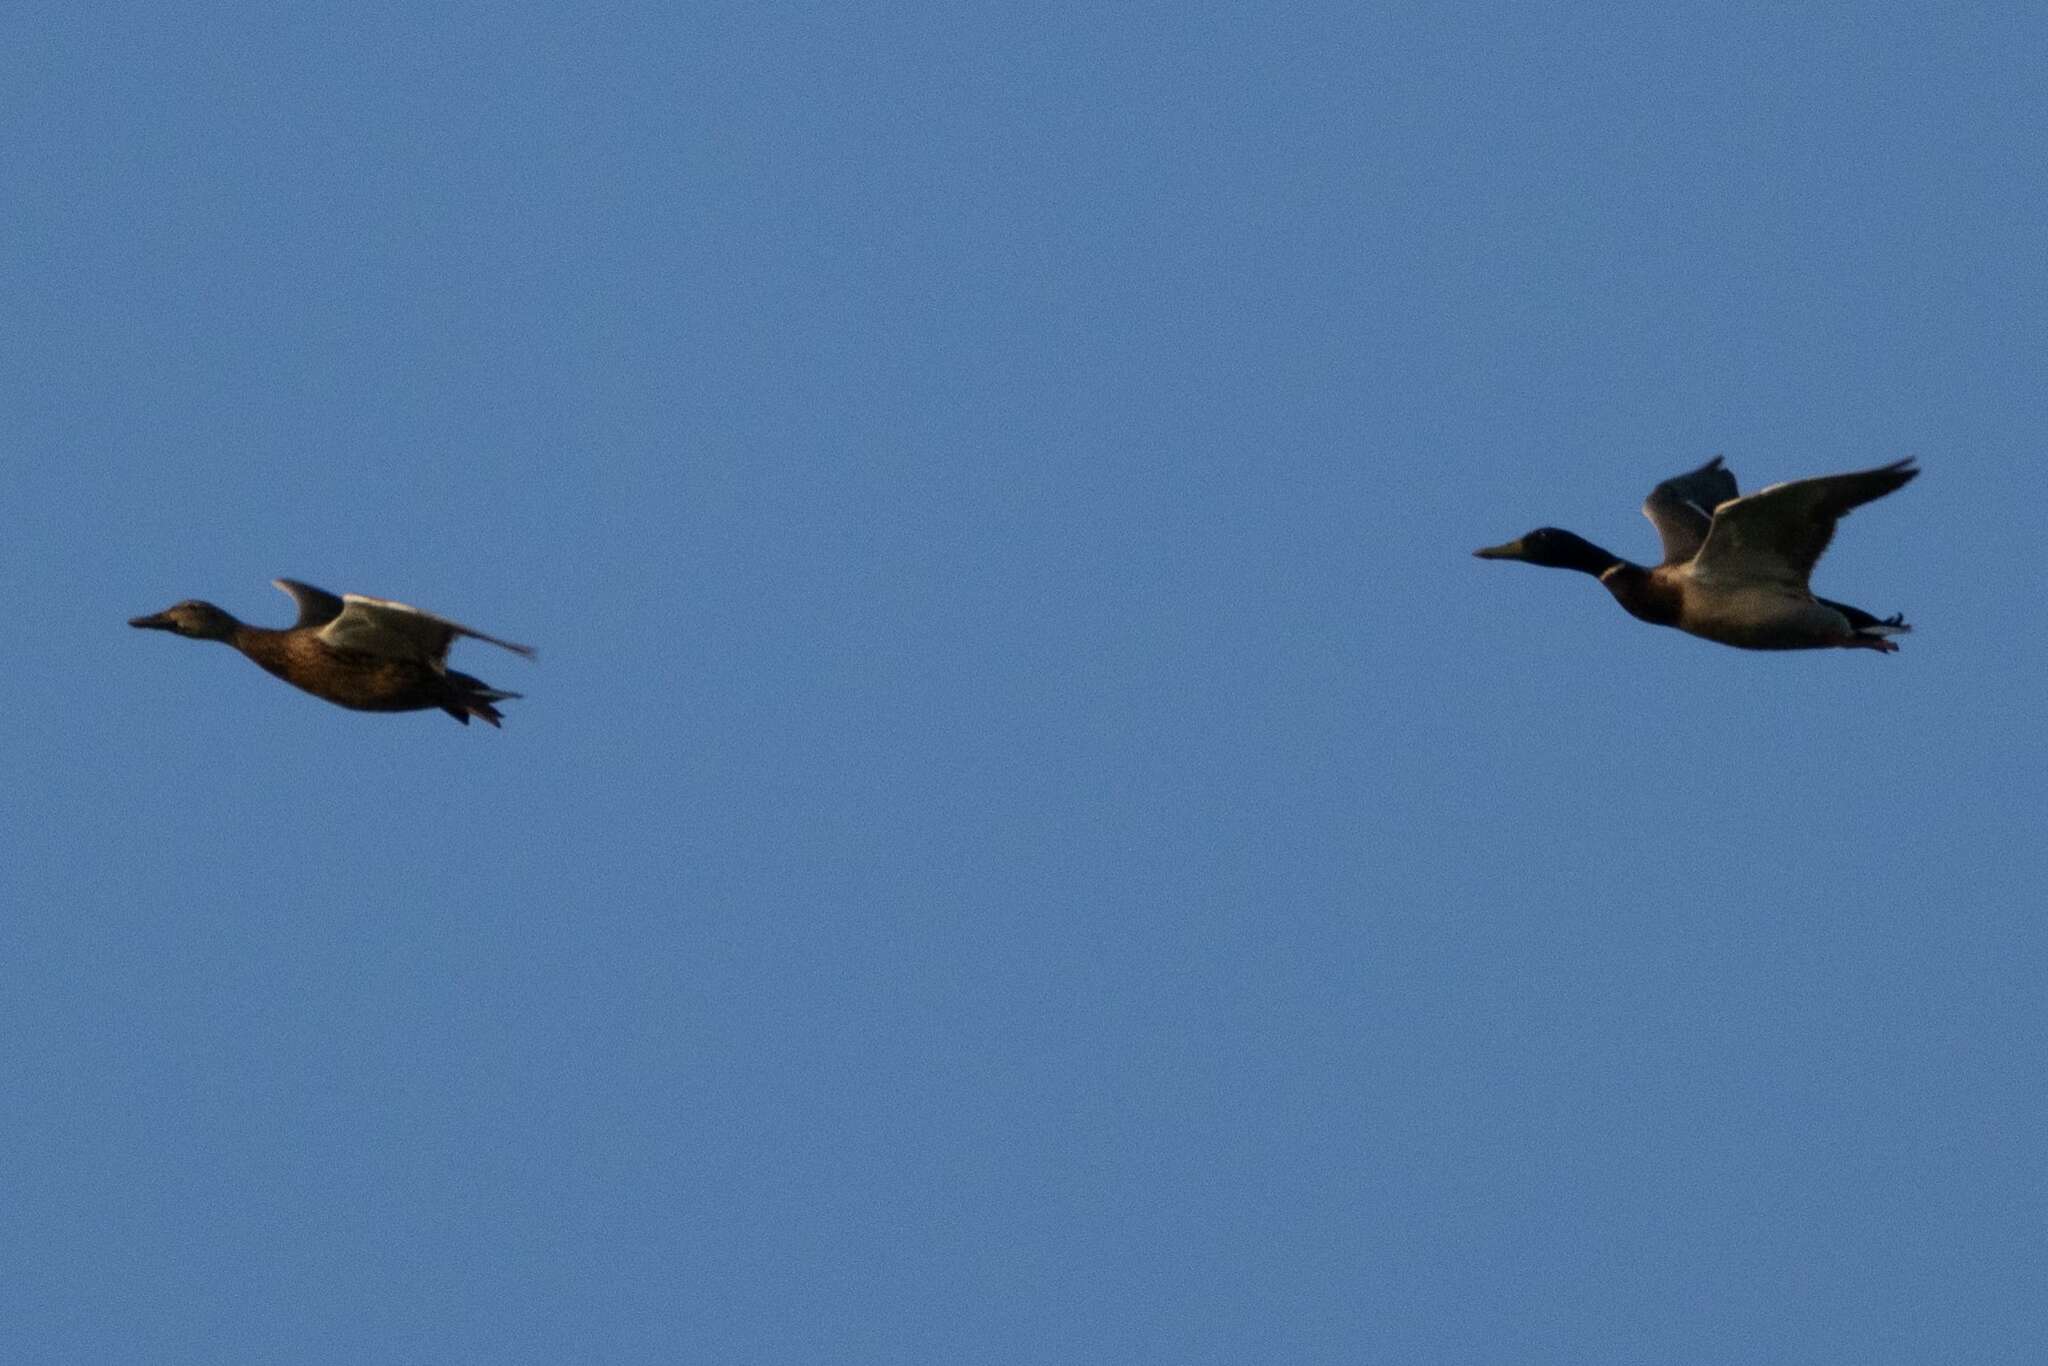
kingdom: Animalia
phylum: Chordata
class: Aves
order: Anseriformes
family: Anatidae
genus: Anas
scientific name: Anas platyrhynchos
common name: Mallard
